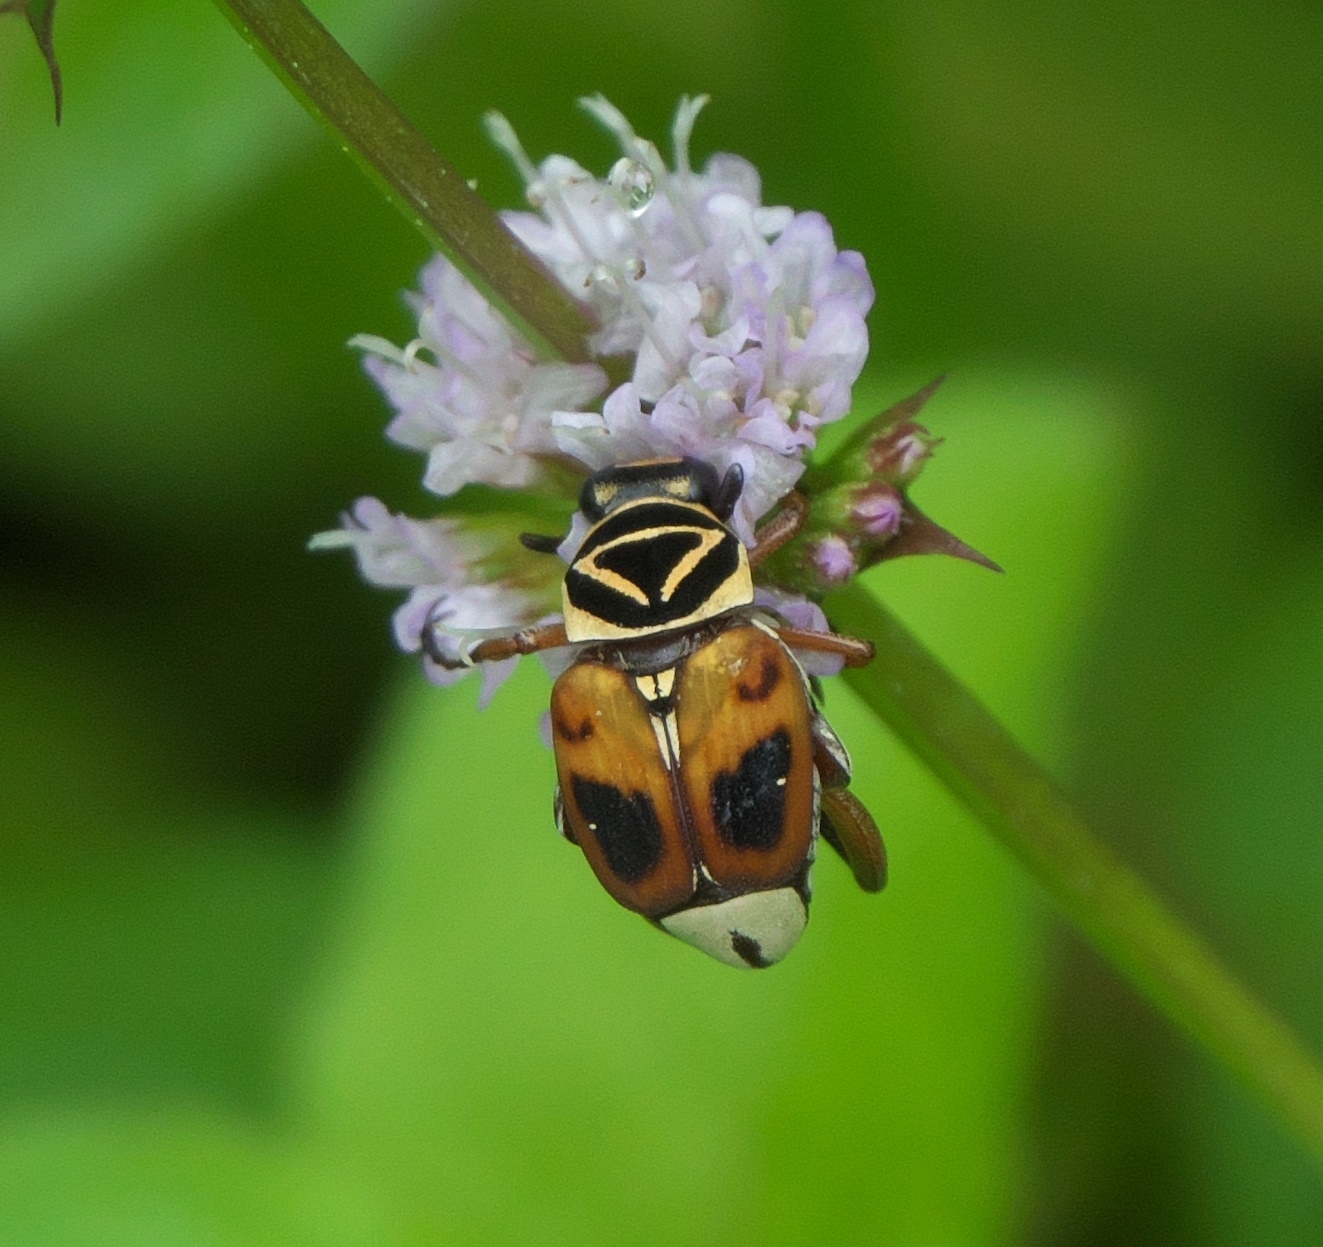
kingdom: Animalia
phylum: Arthropoda
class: Insecta
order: Coleoptera
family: Scarabaeidae
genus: Trigonopeltastes
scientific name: Trigonopeltastes delta
